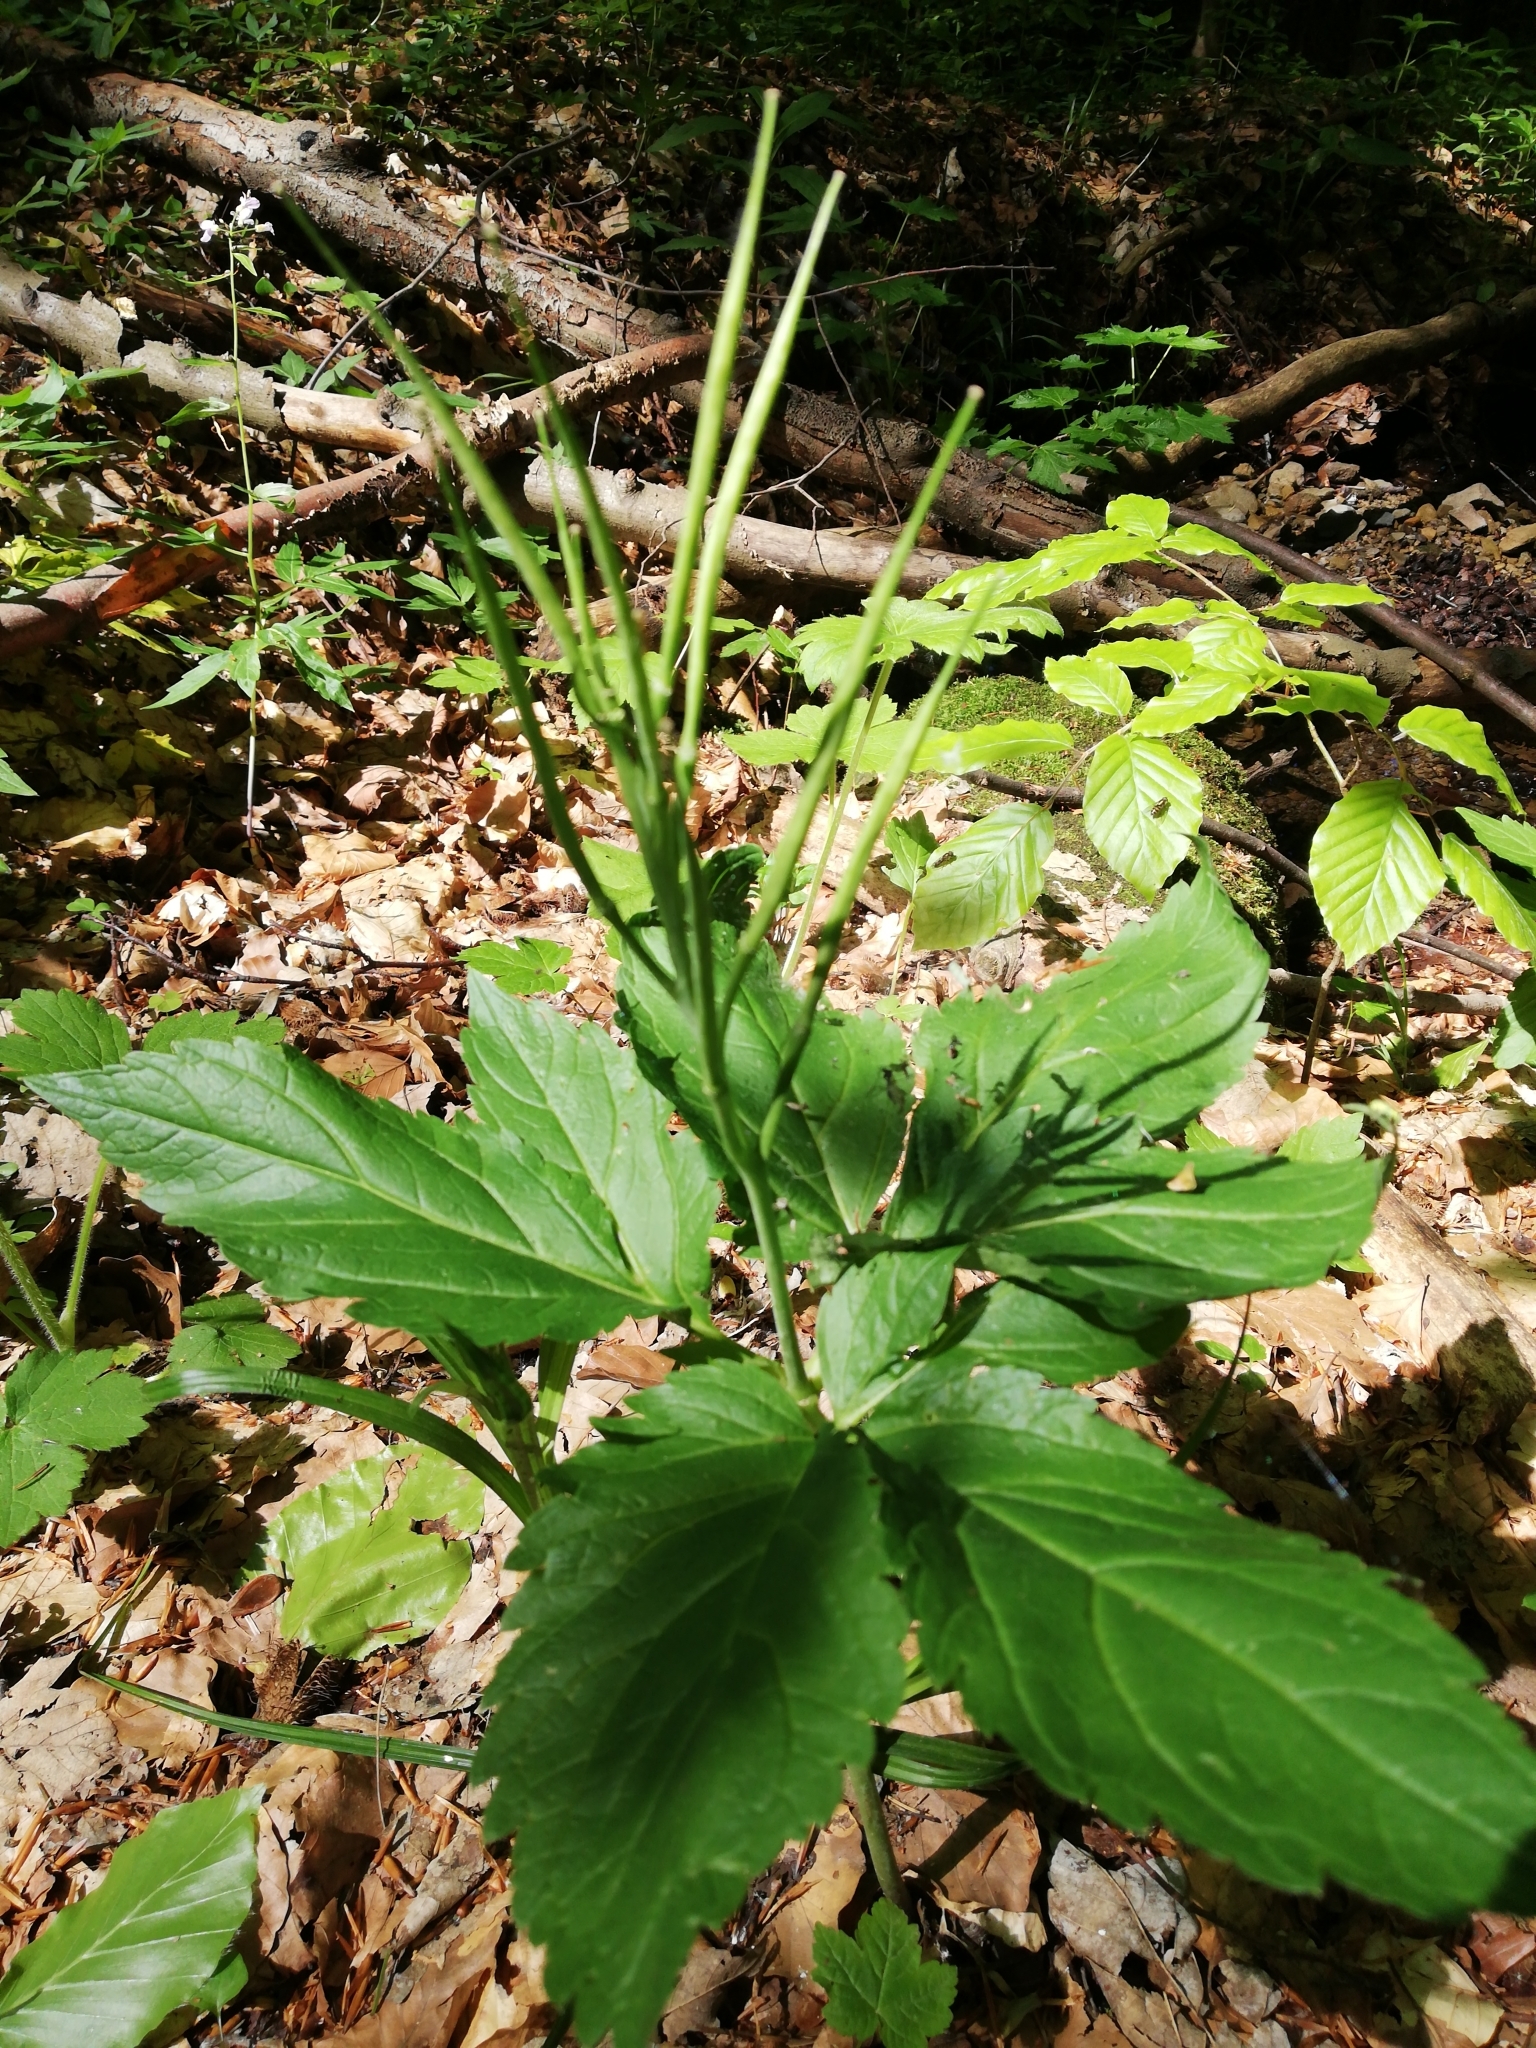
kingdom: Plantae
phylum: Tracheophyta
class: Magnoliopsida
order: Brassicales
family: Brassicaceae
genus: Cardamine
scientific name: Cardamine enneaphyllos
